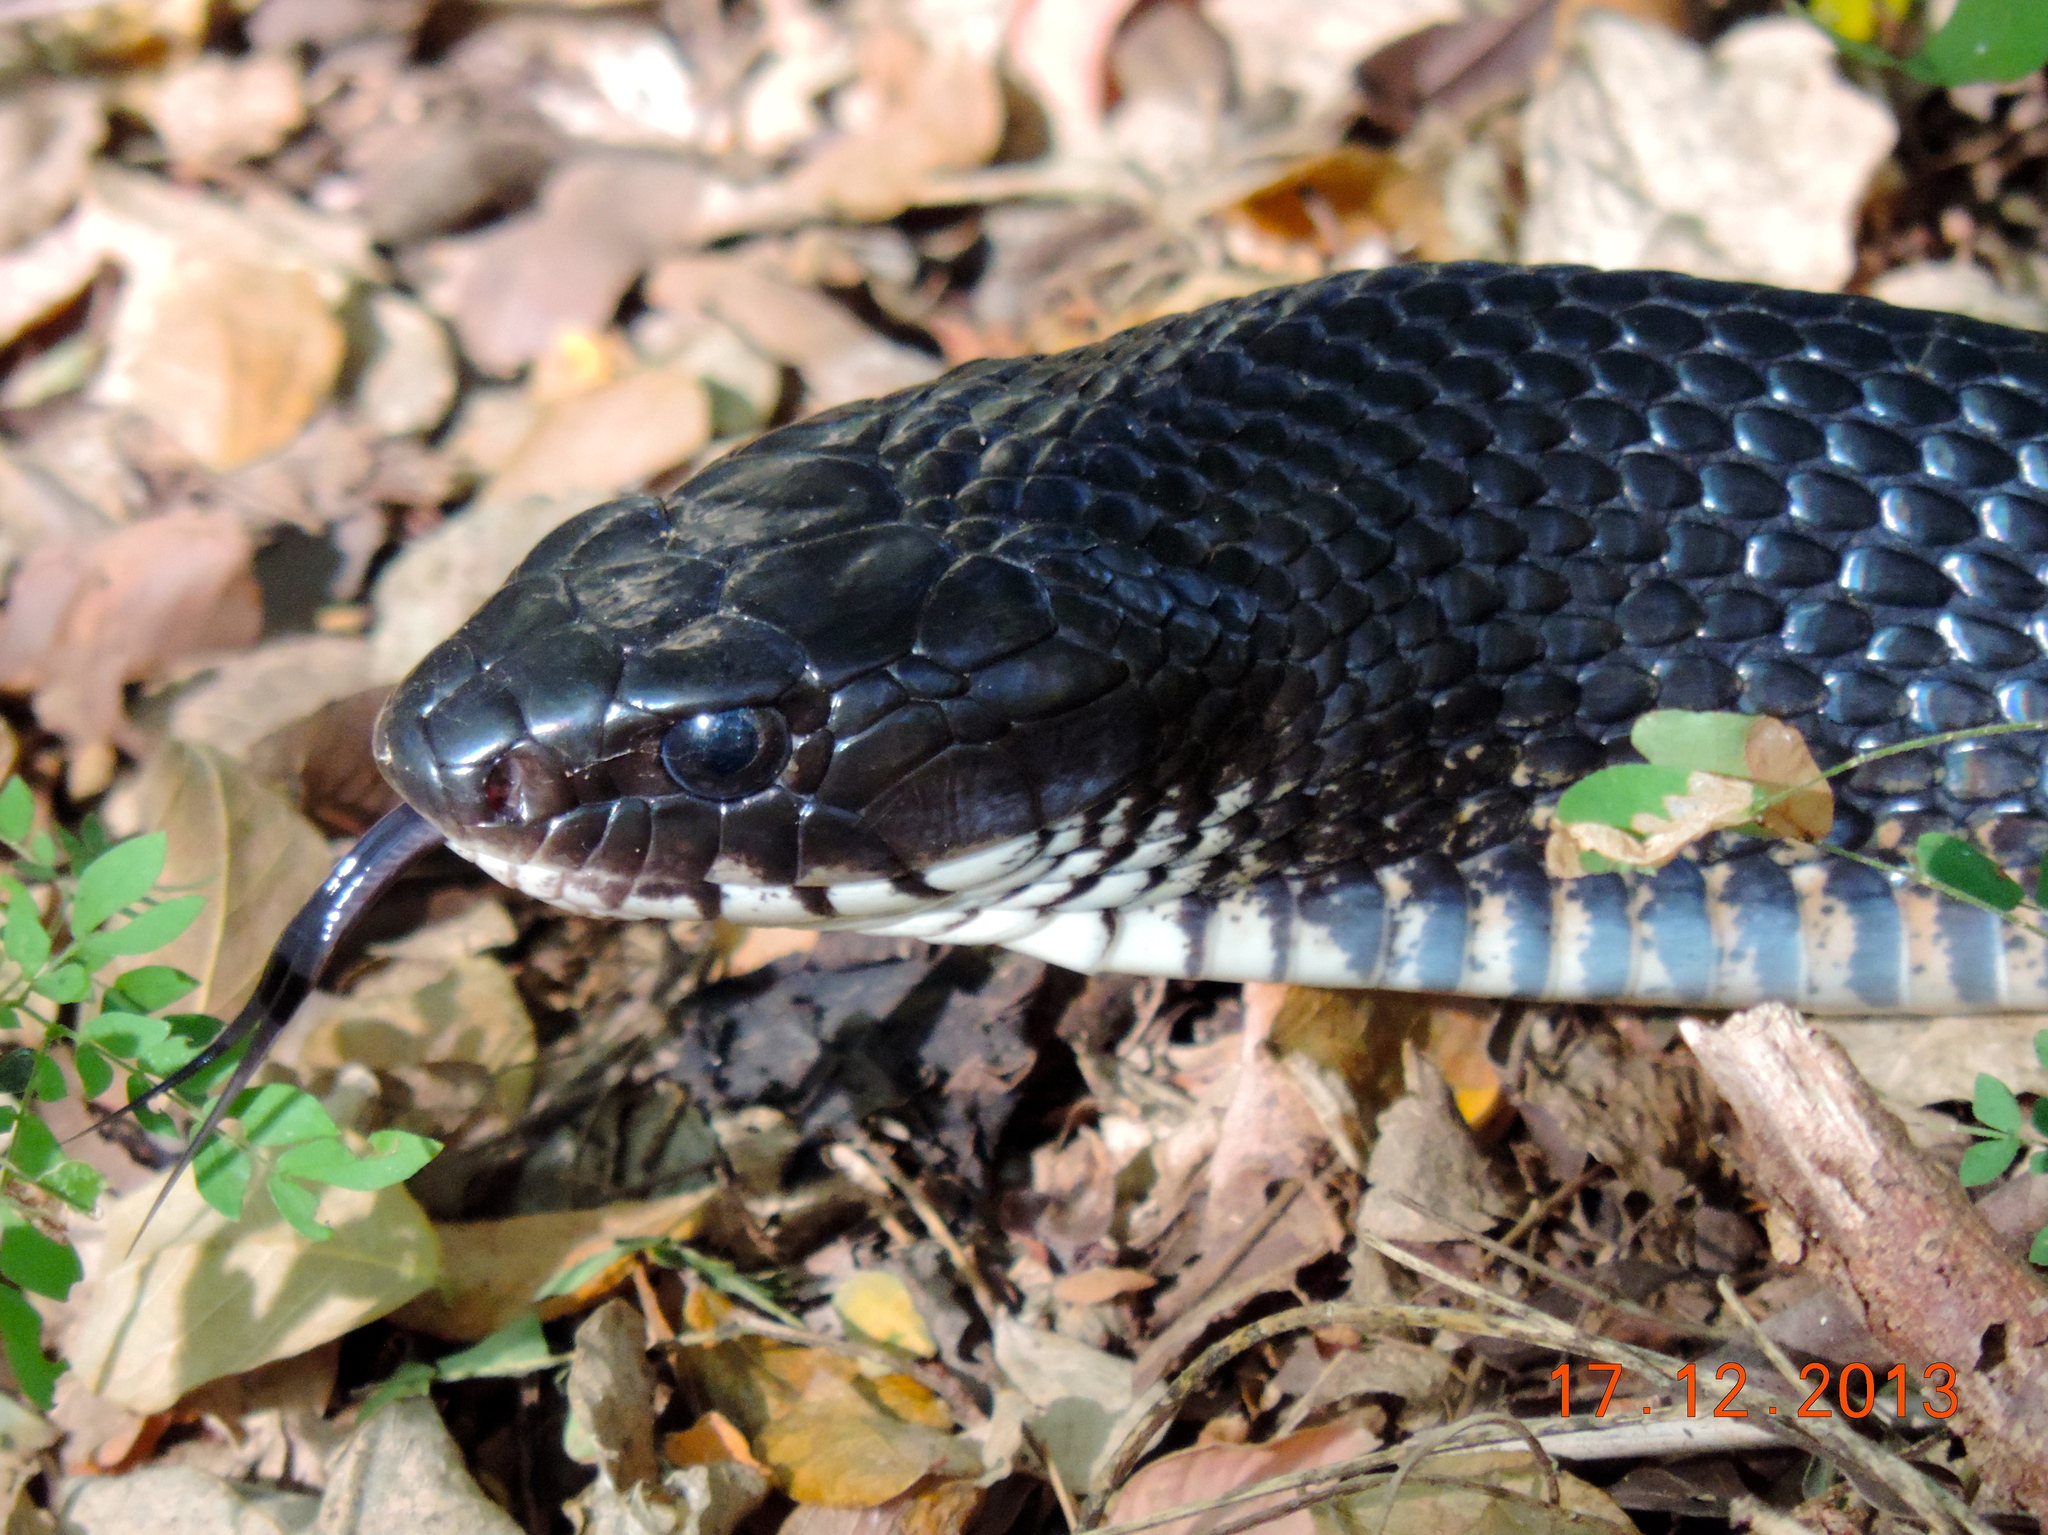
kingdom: Animalia
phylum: Chordata
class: Squamata
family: Colubridae
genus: Drymarchon
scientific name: Drymarchon melanurus
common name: Central american indigo snake
